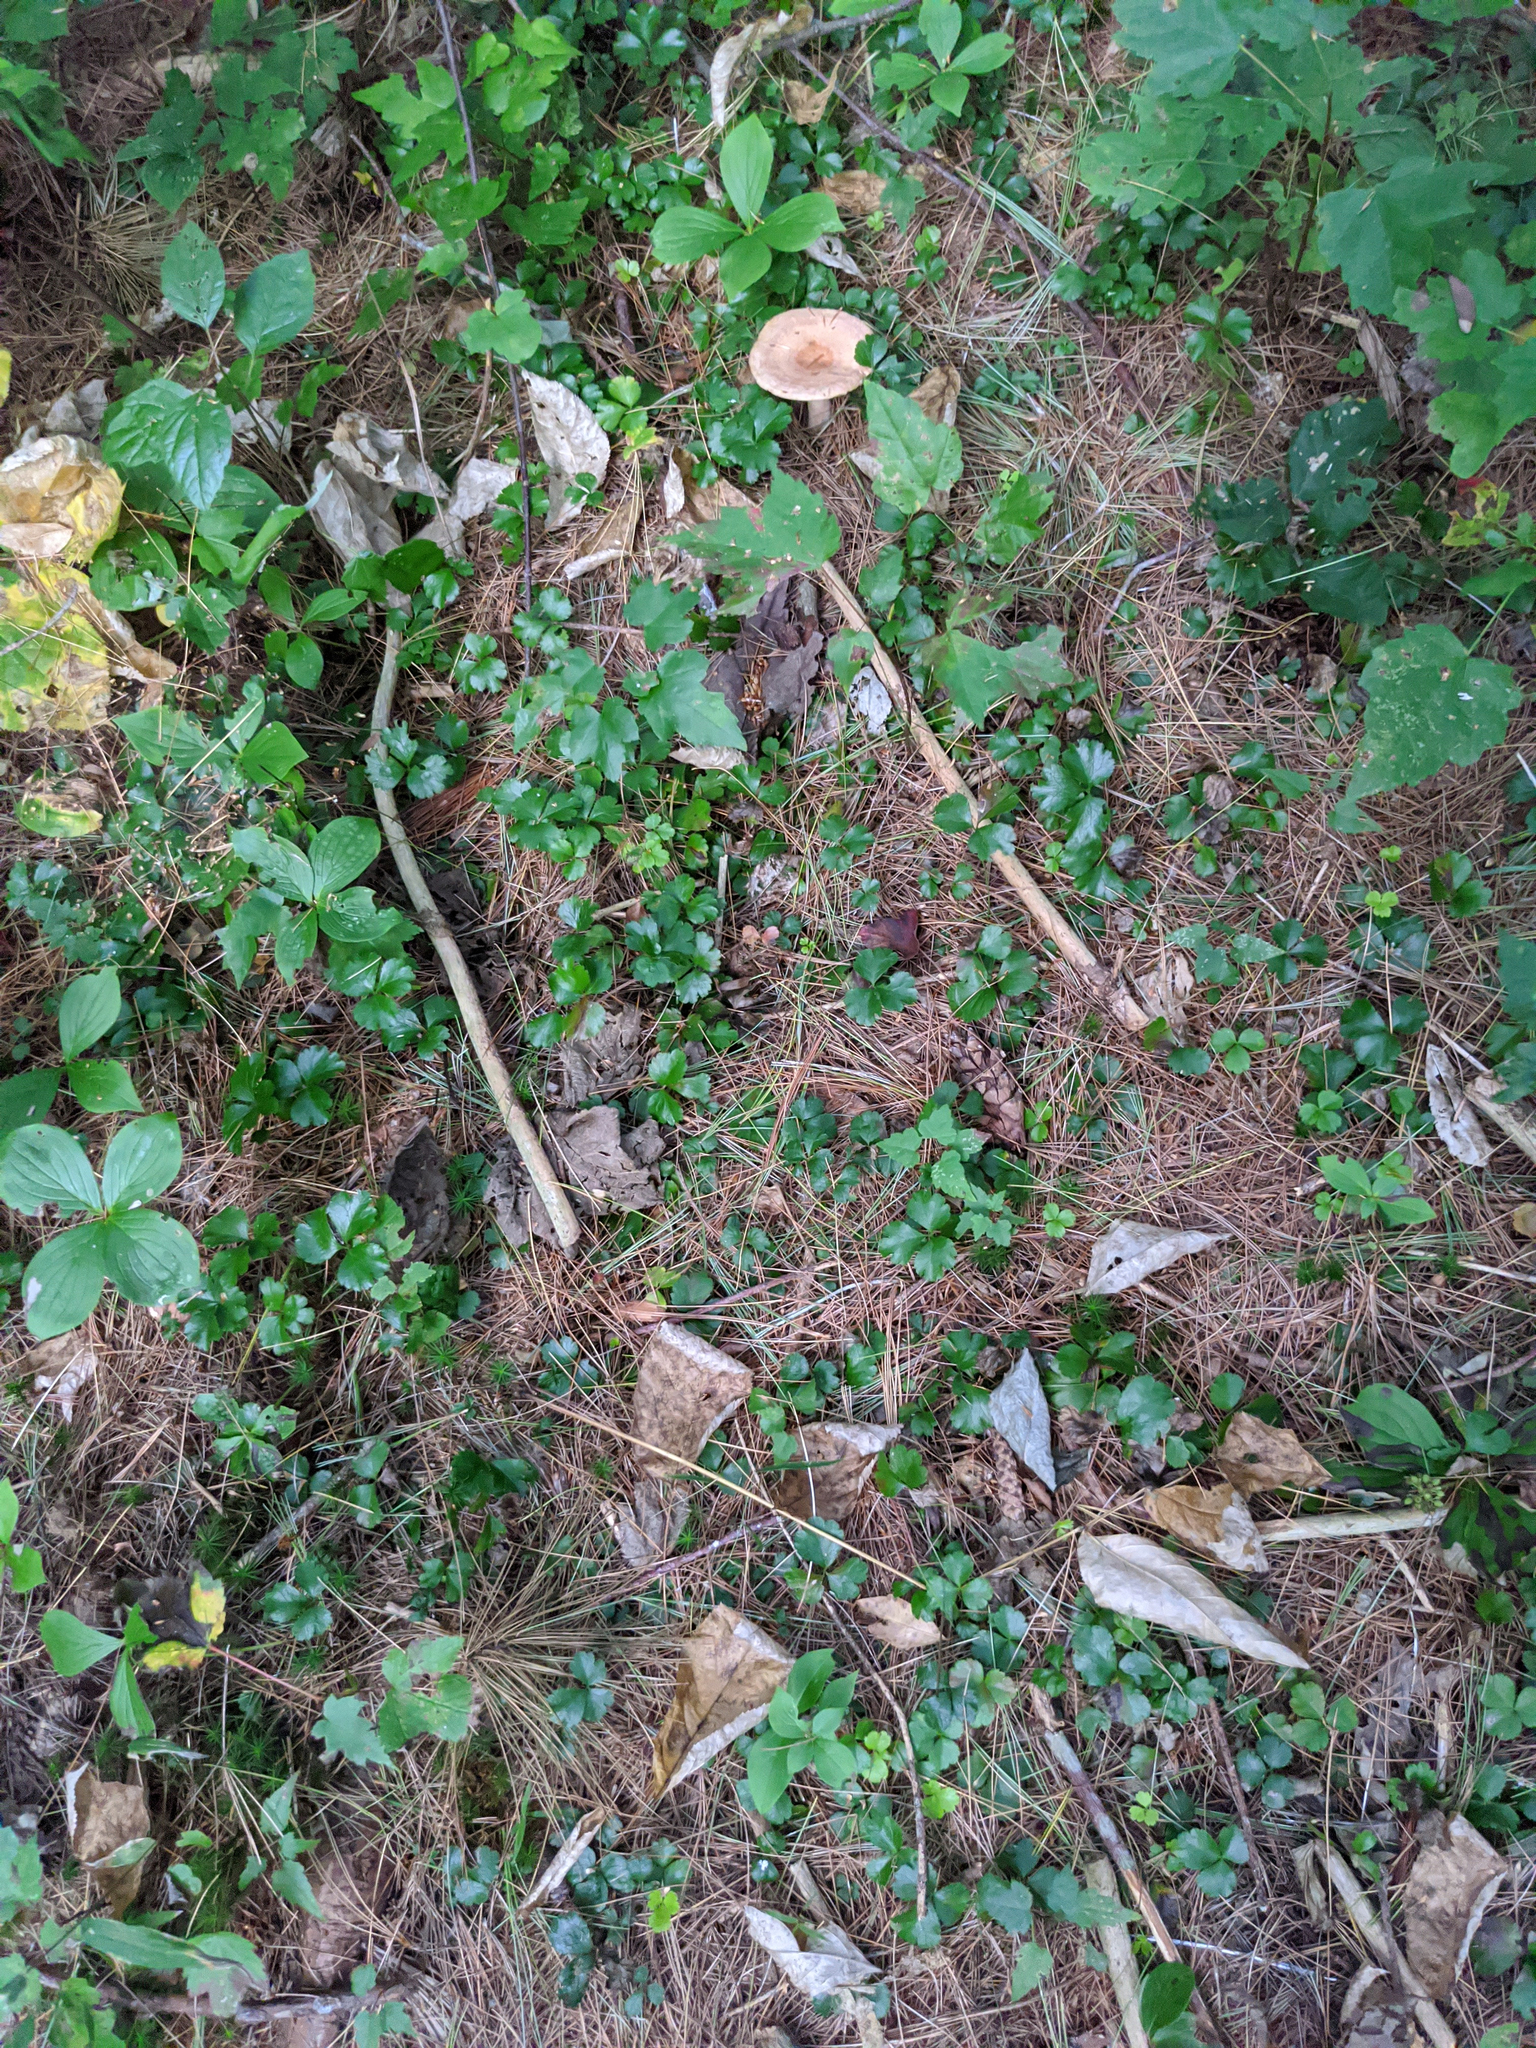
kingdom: Plantae
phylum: Tracheophyta
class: Magnoliopsida
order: Ranunculales
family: Ranunculaceae
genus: Coptis
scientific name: Coptis trifolia
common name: Canker-root
